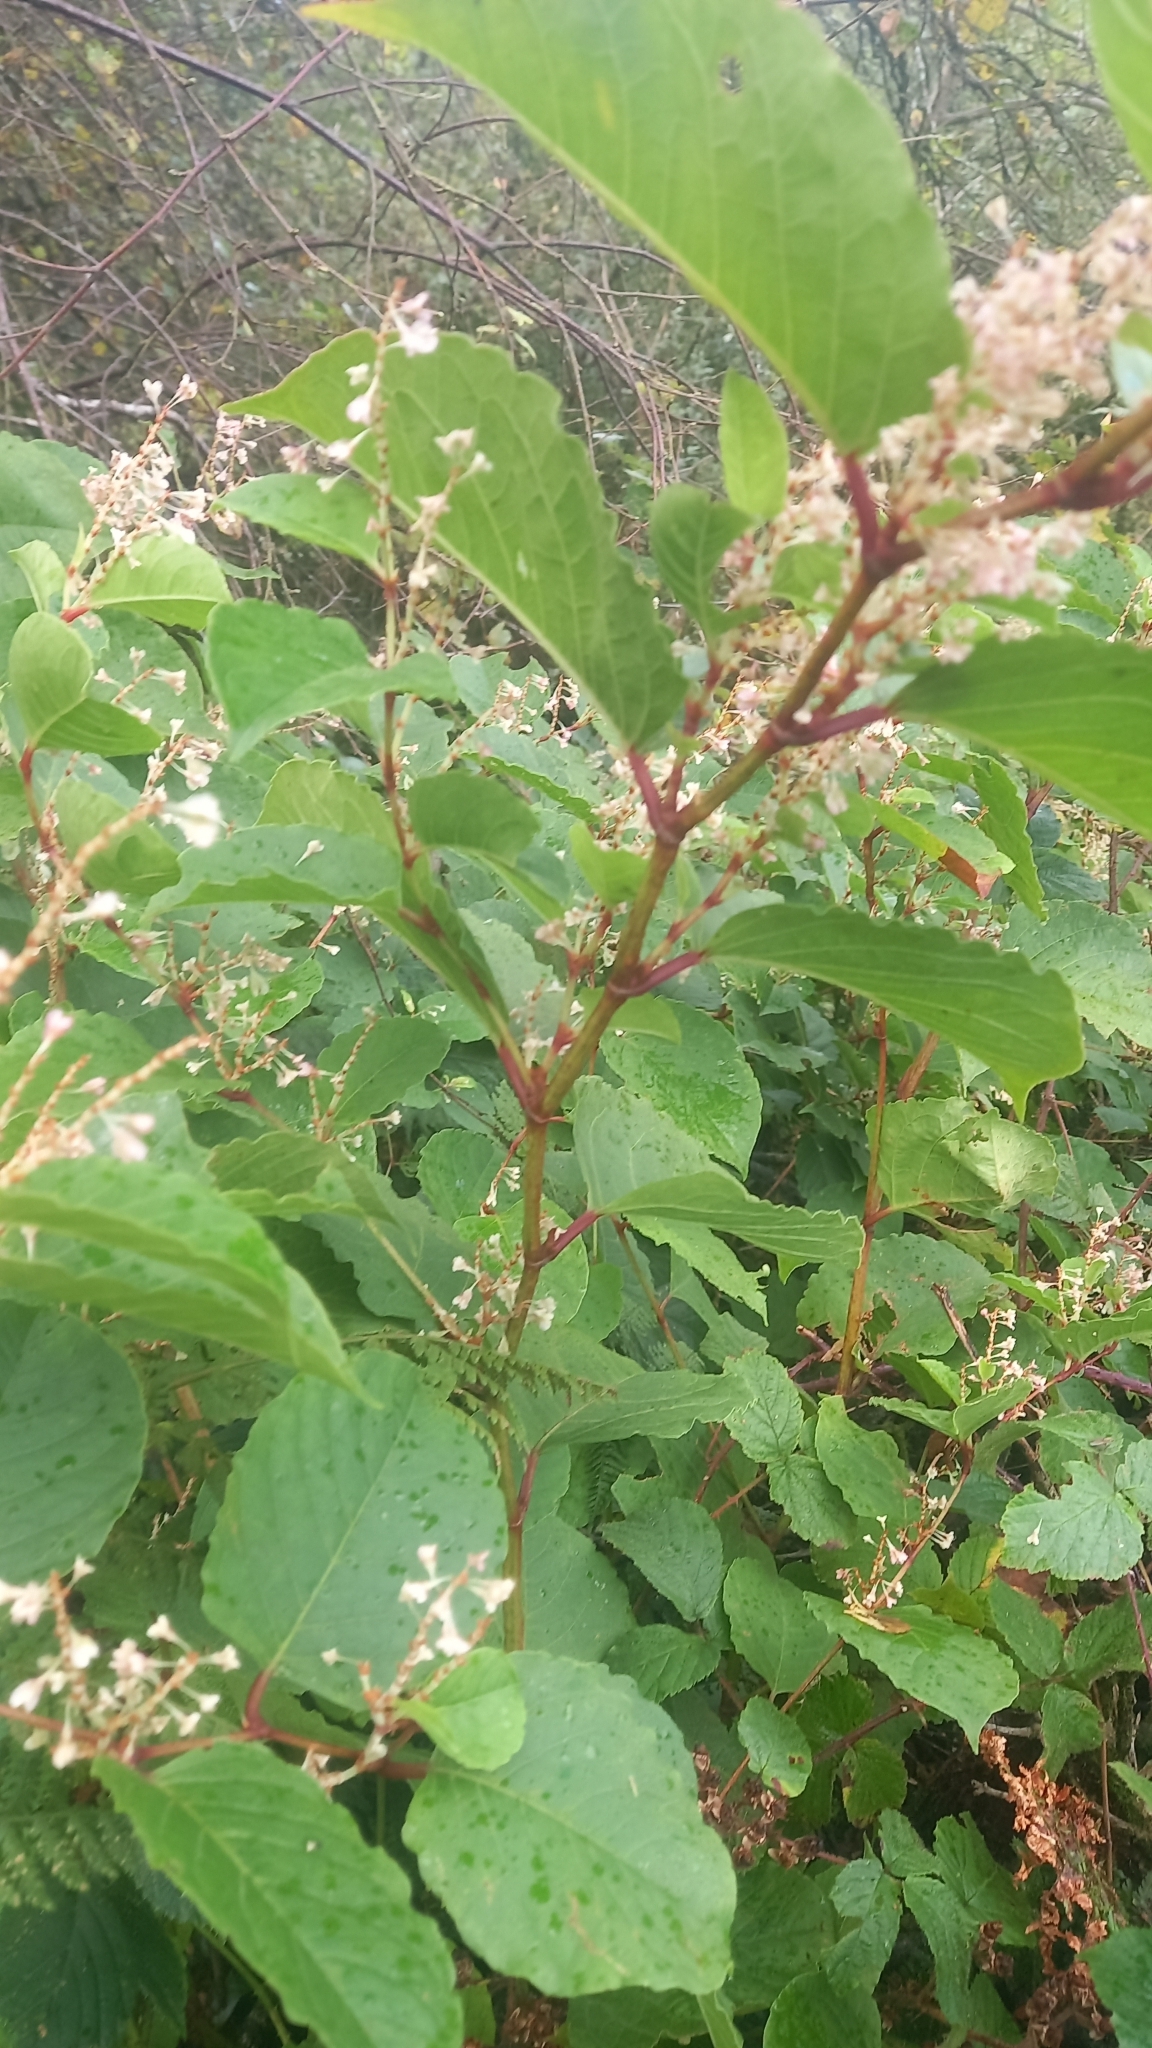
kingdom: Plantae
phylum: Tracheophyta
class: Magnoliopsida
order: Caryophyllales
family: Polygonaceae
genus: Reynoutria
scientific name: Reynoutria japonica
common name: Japanese knotweed
